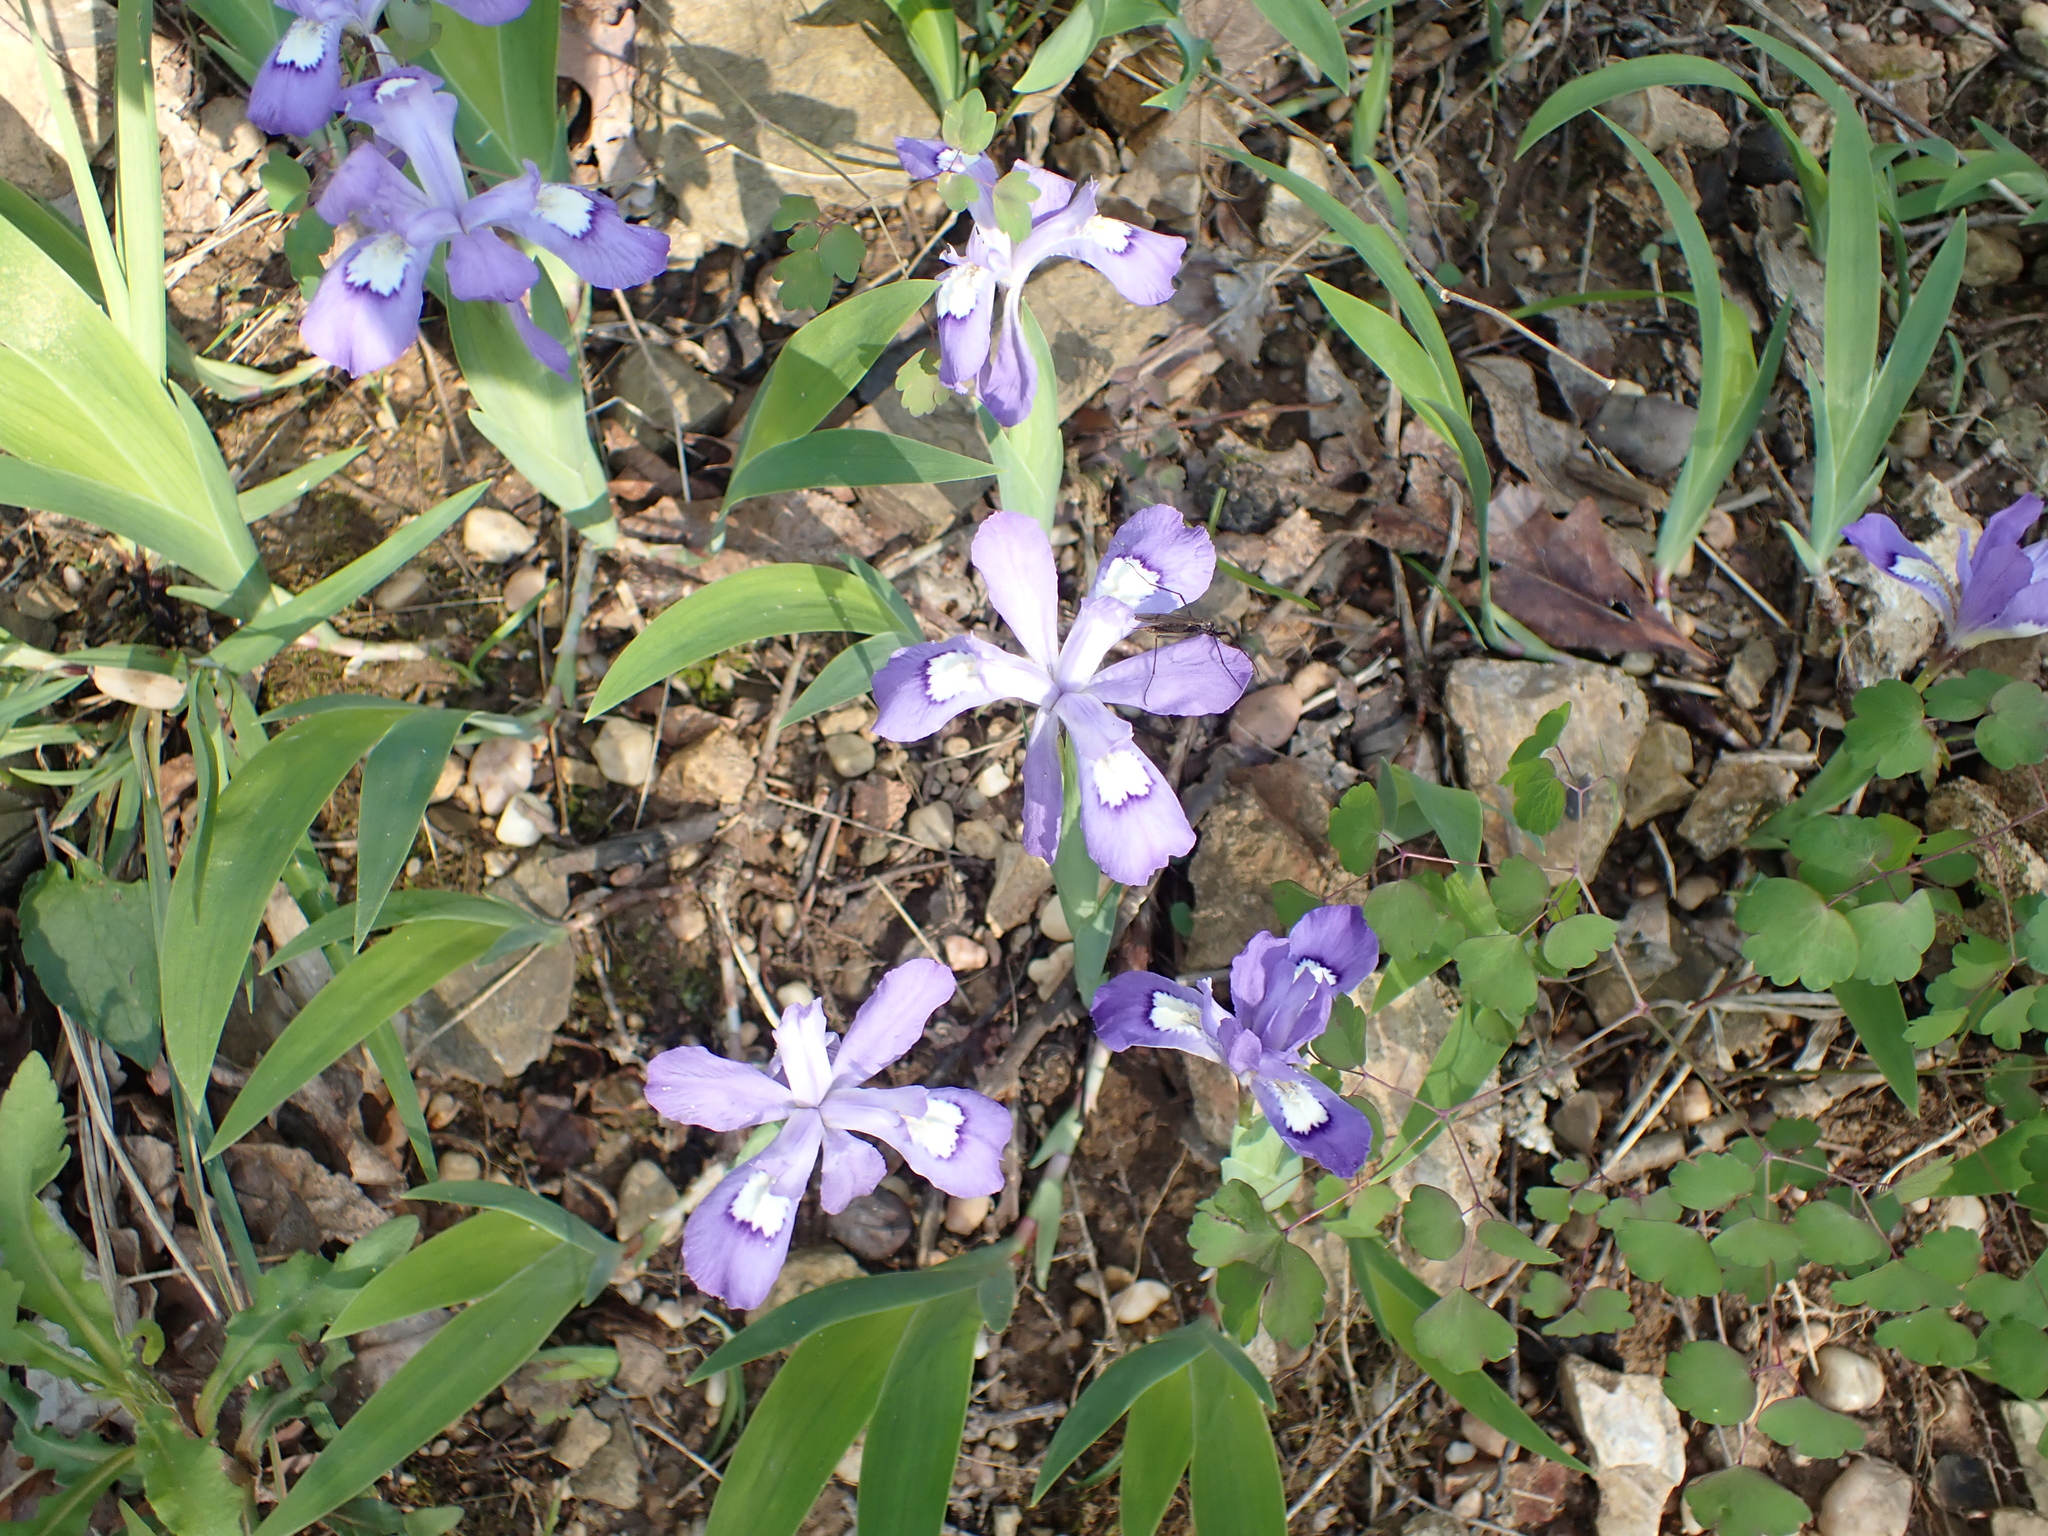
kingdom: Plantae
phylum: Tracheophyta
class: Liliopsida
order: Asparagales
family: Iridaceae
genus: Iris
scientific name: Iris cristata
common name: Crested iris
